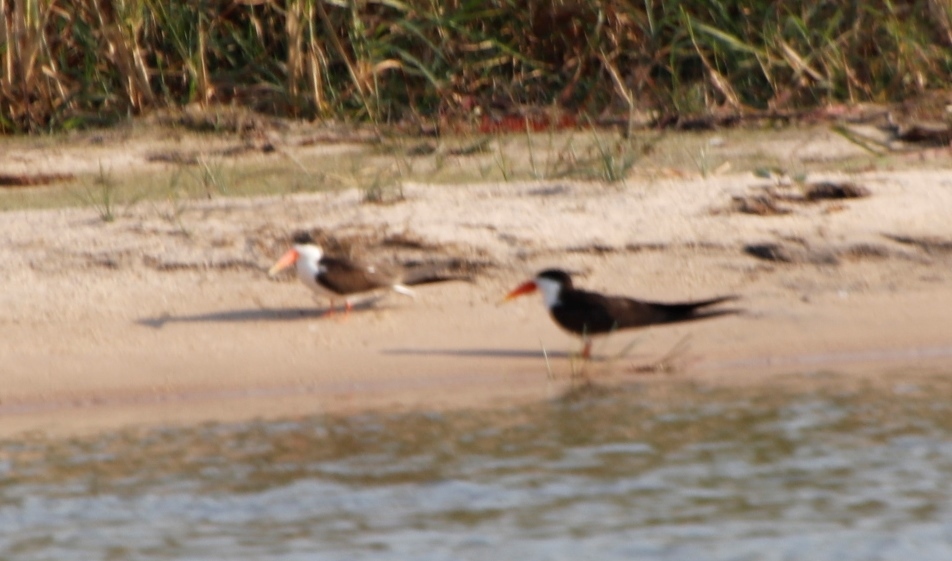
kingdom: Animalia
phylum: Chordata
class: Aves
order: Charadriiformes
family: Laridae
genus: Rynchops
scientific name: Rynchops flavirostris
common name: African skimmer
